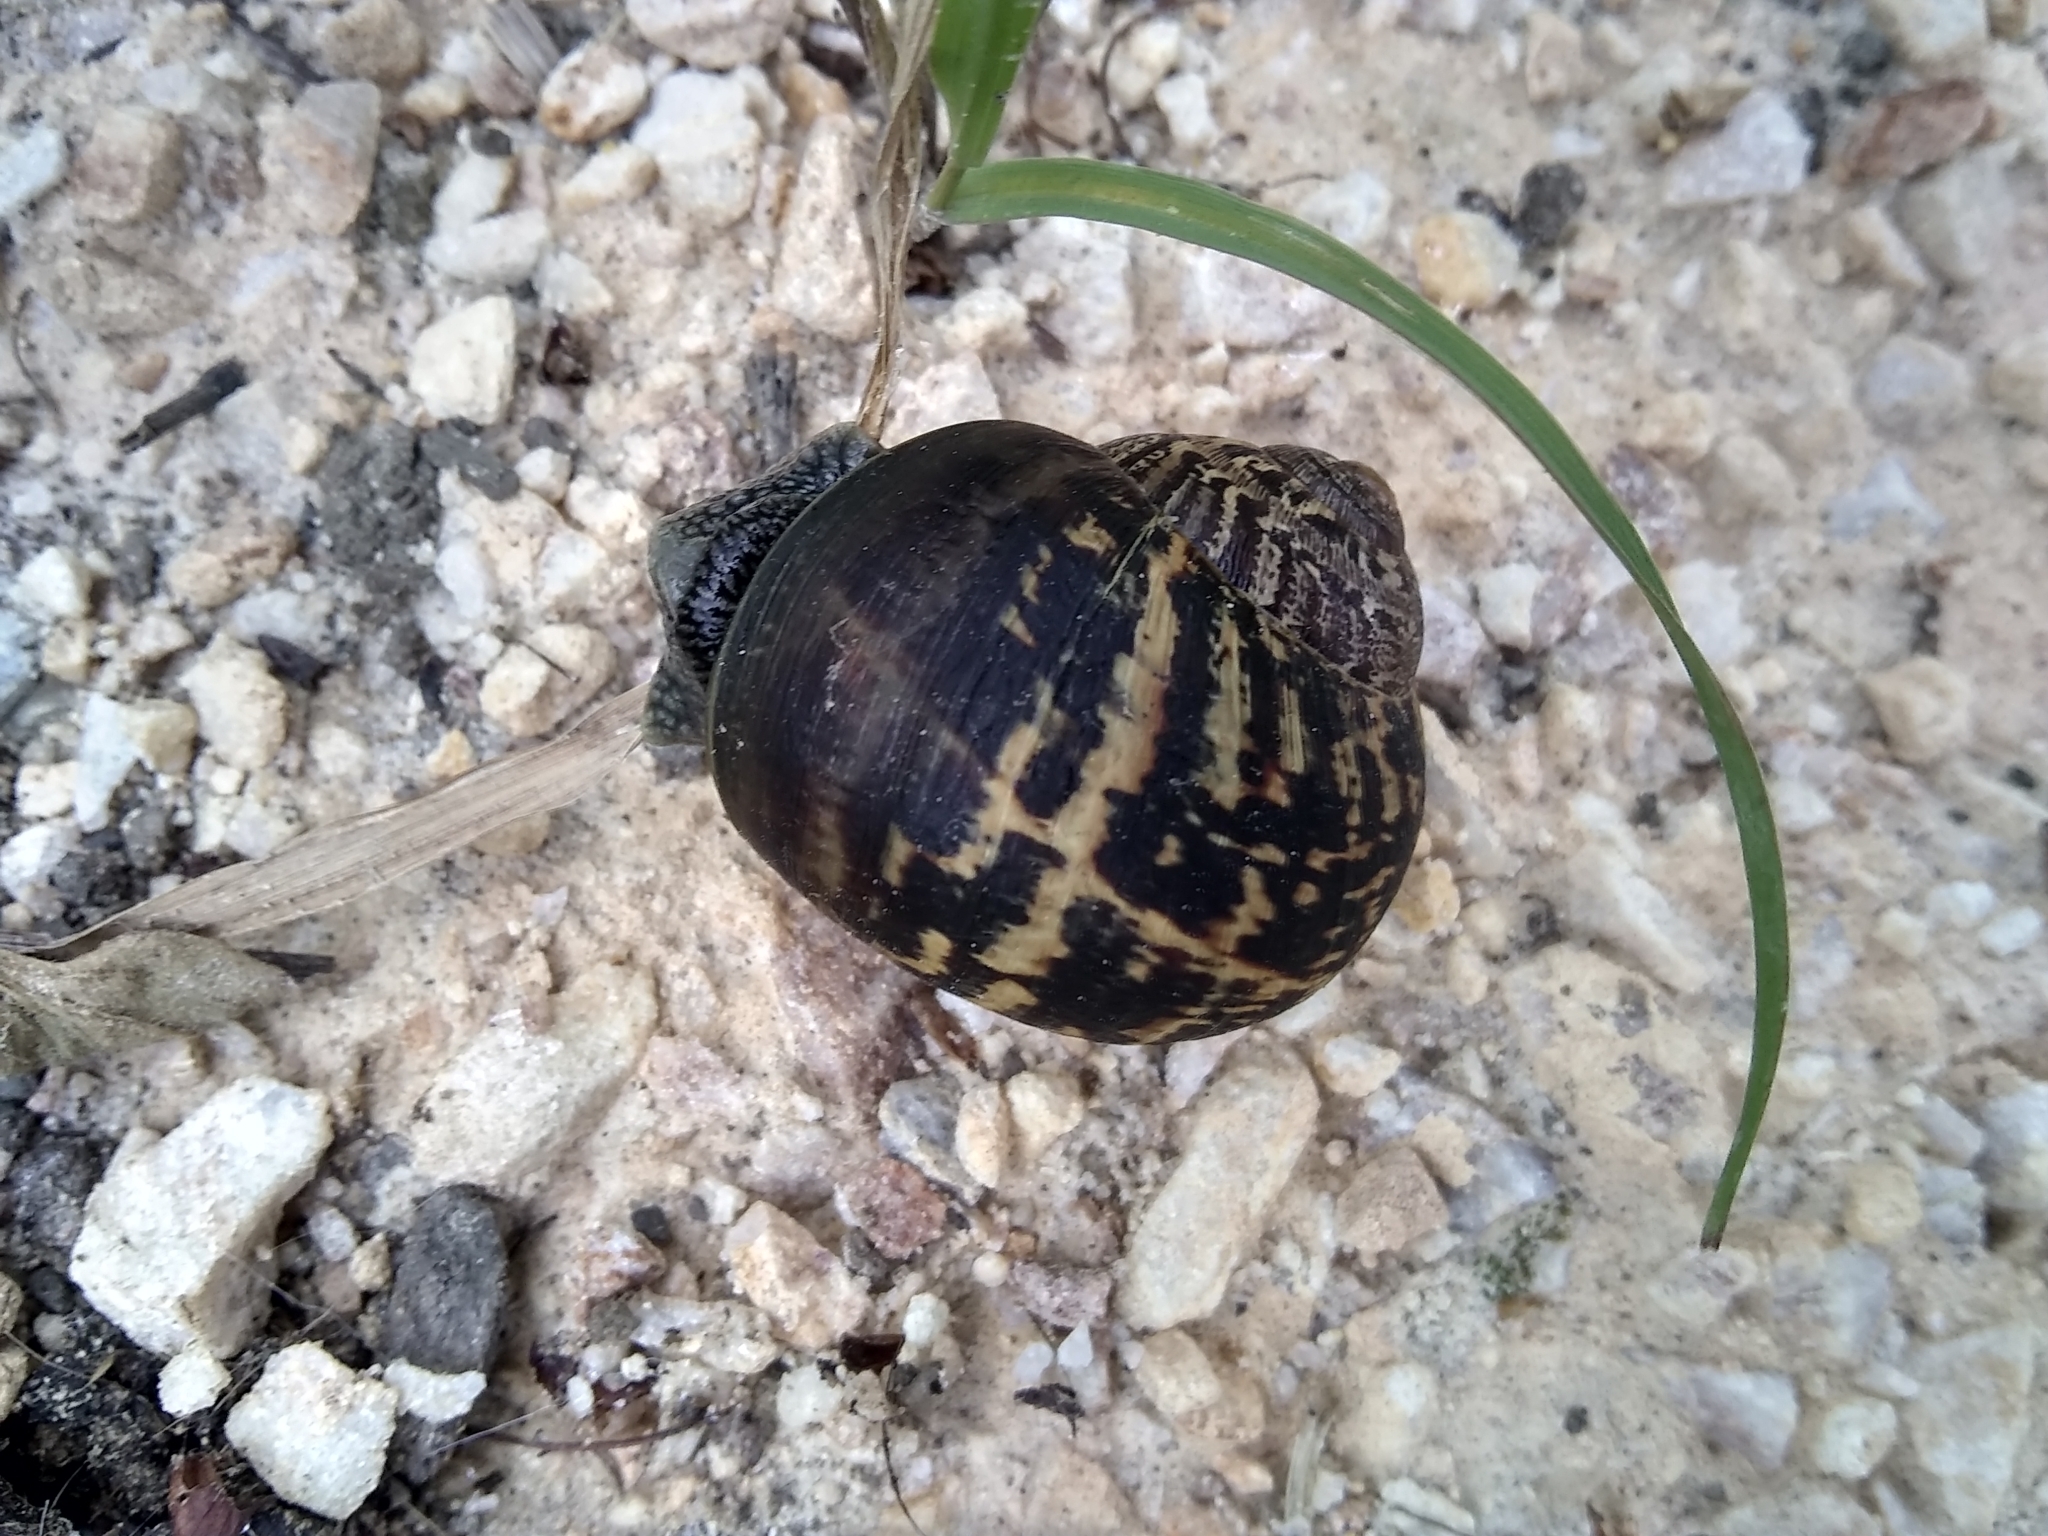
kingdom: Animalia
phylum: Mollusca
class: Gastropoda
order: Stylommatophora
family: Helicidae
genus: Cornu
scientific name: Cornu aspersum
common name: Brown garden snail
